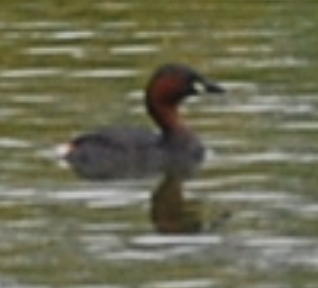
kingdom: Animalia
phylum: Chordata
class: Aves
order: Podicipediformes
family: Podicipedidae
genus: Tachybaptus
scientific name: Tachybaptus ruficollis
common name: Little grebe
